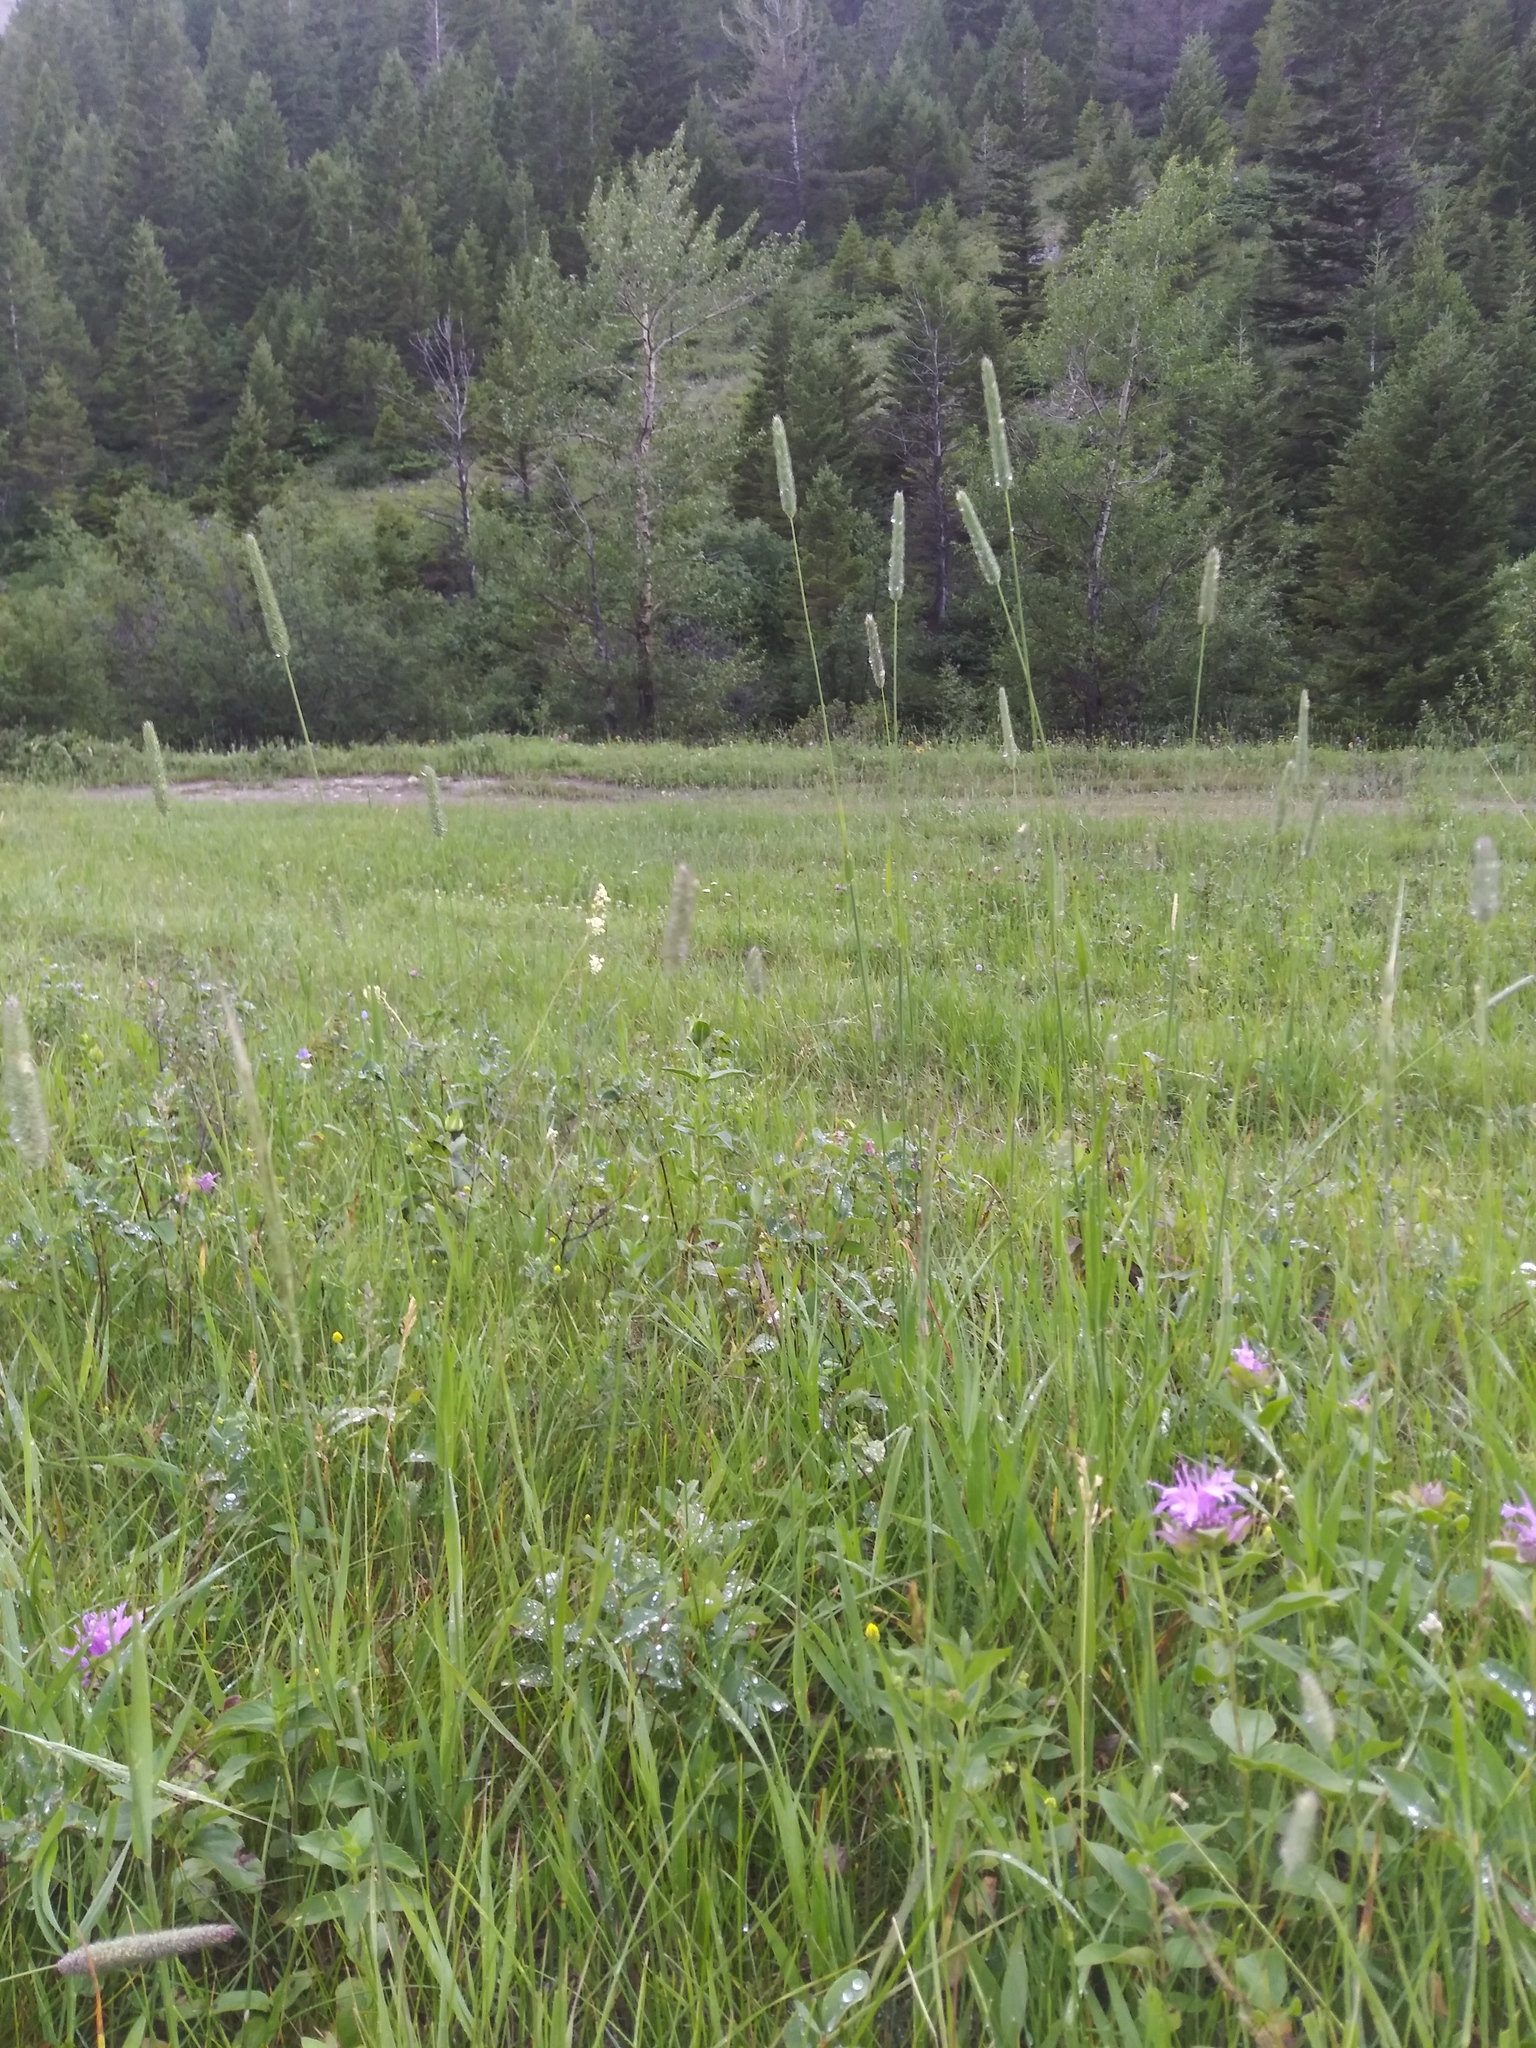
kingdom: Plantae
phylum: Tracheophyta
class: Liliopsida
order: Poales
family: Poaceae
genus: Phleum
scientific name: Phleum pratense
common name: Timothy grass
